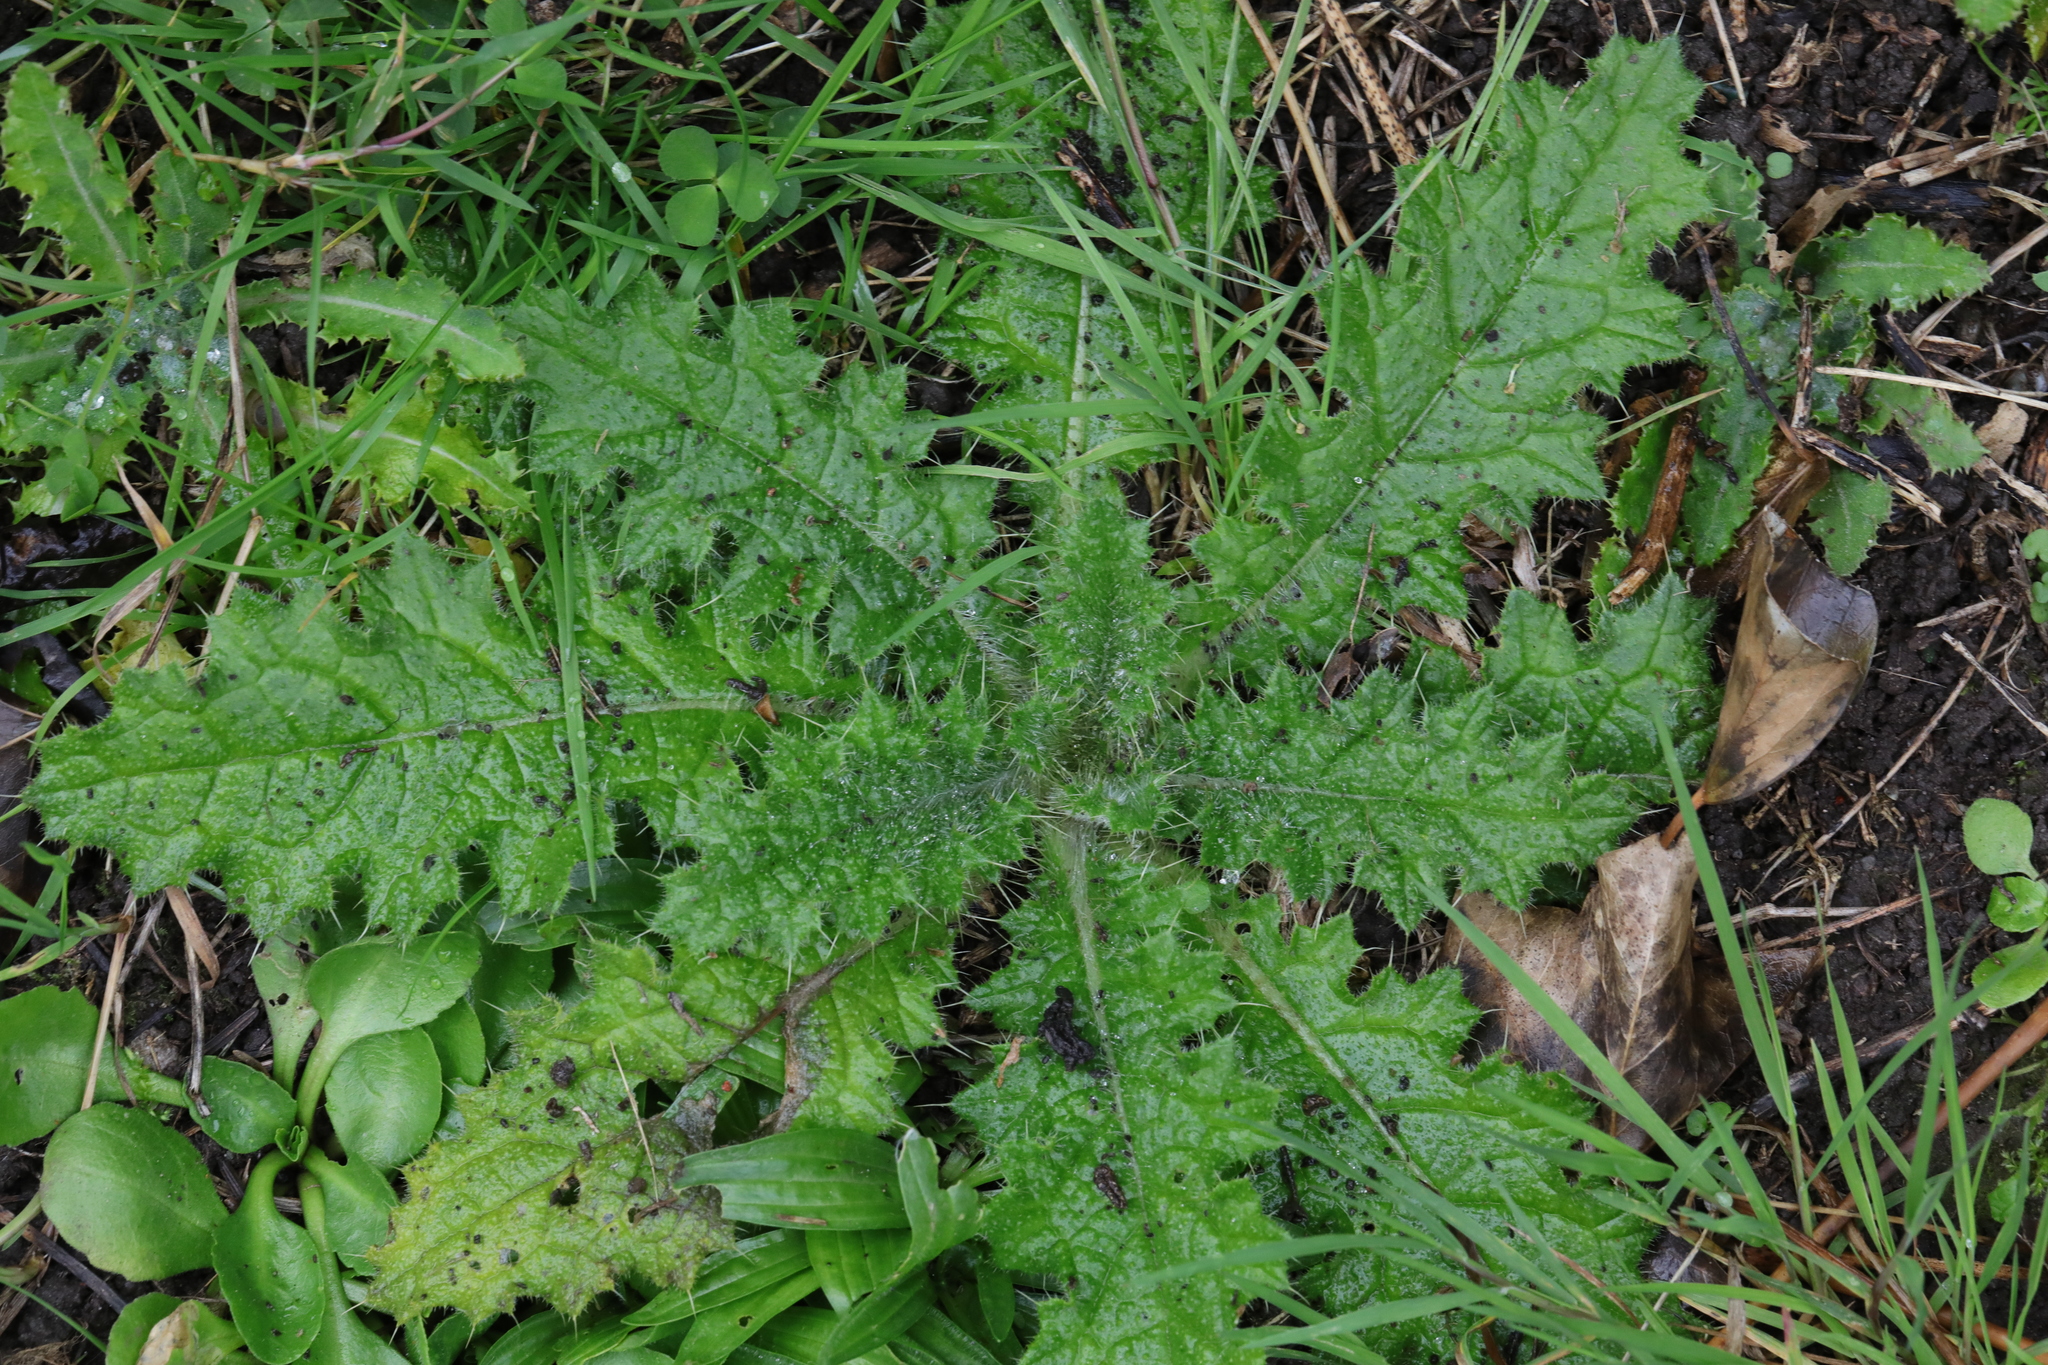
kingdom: Plantae
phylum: Tracheophyta
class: Magnoliopsida
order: Asterales
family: Asteraceae
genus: Cirsium
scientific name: Cirsium vulgare
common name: Bull thistle
